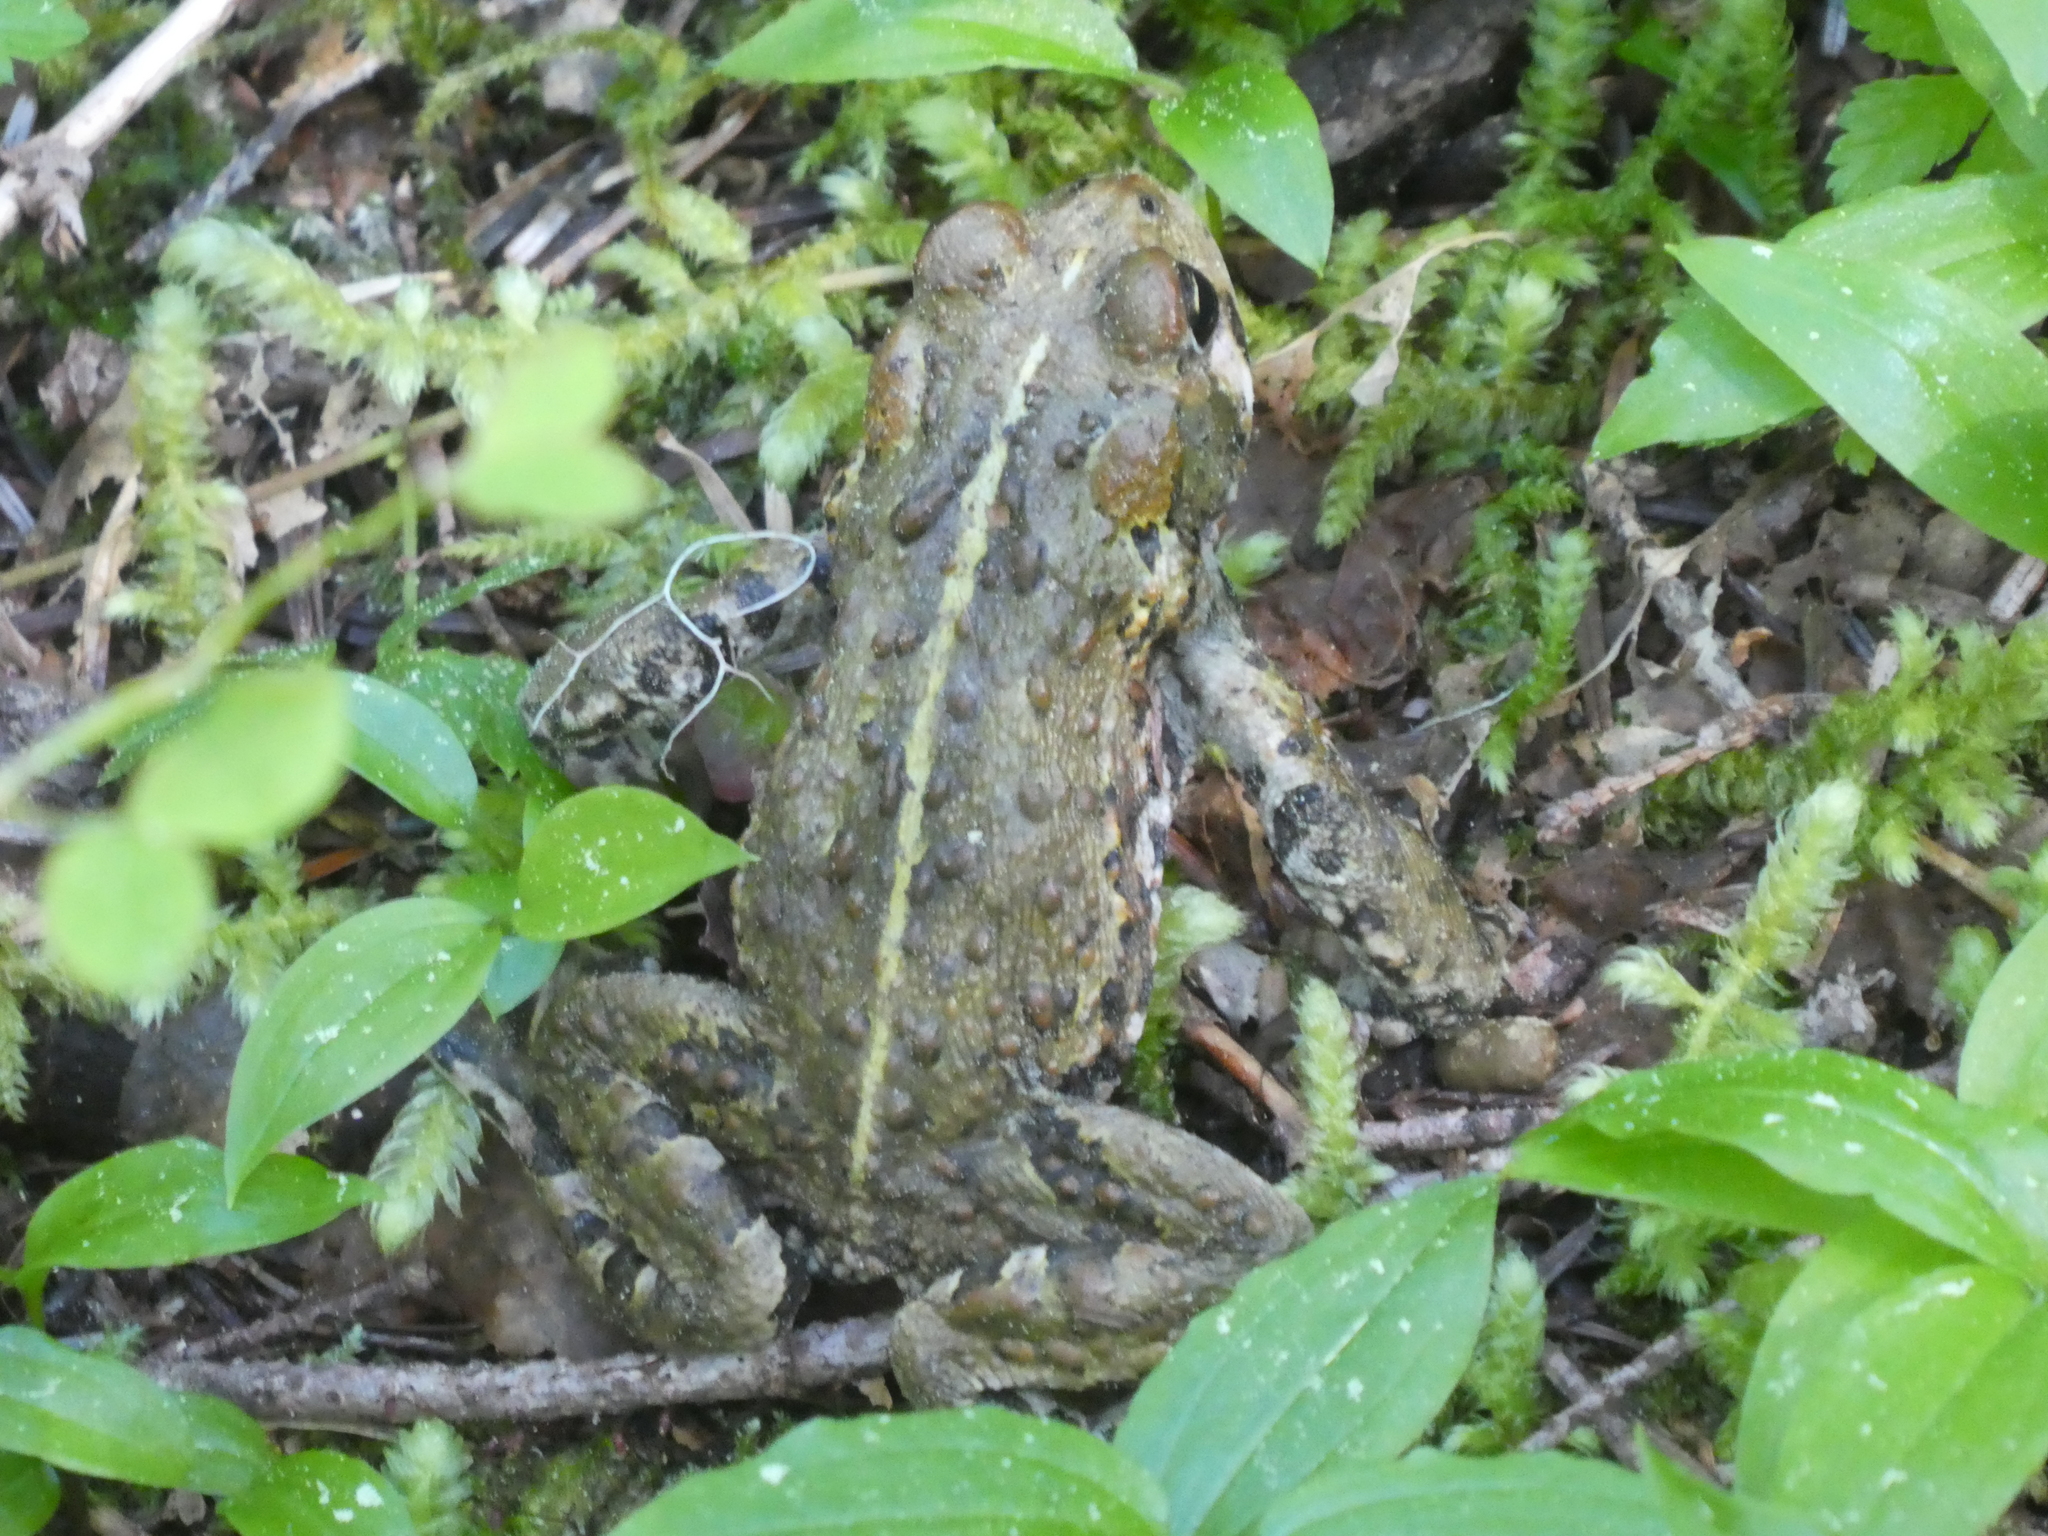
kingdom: Animalia
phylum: Chordata
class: Amphibia
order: Anura
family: Bufonidae
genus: Anaxyrus
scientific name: Anaxyrus boreas
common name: Western toad
